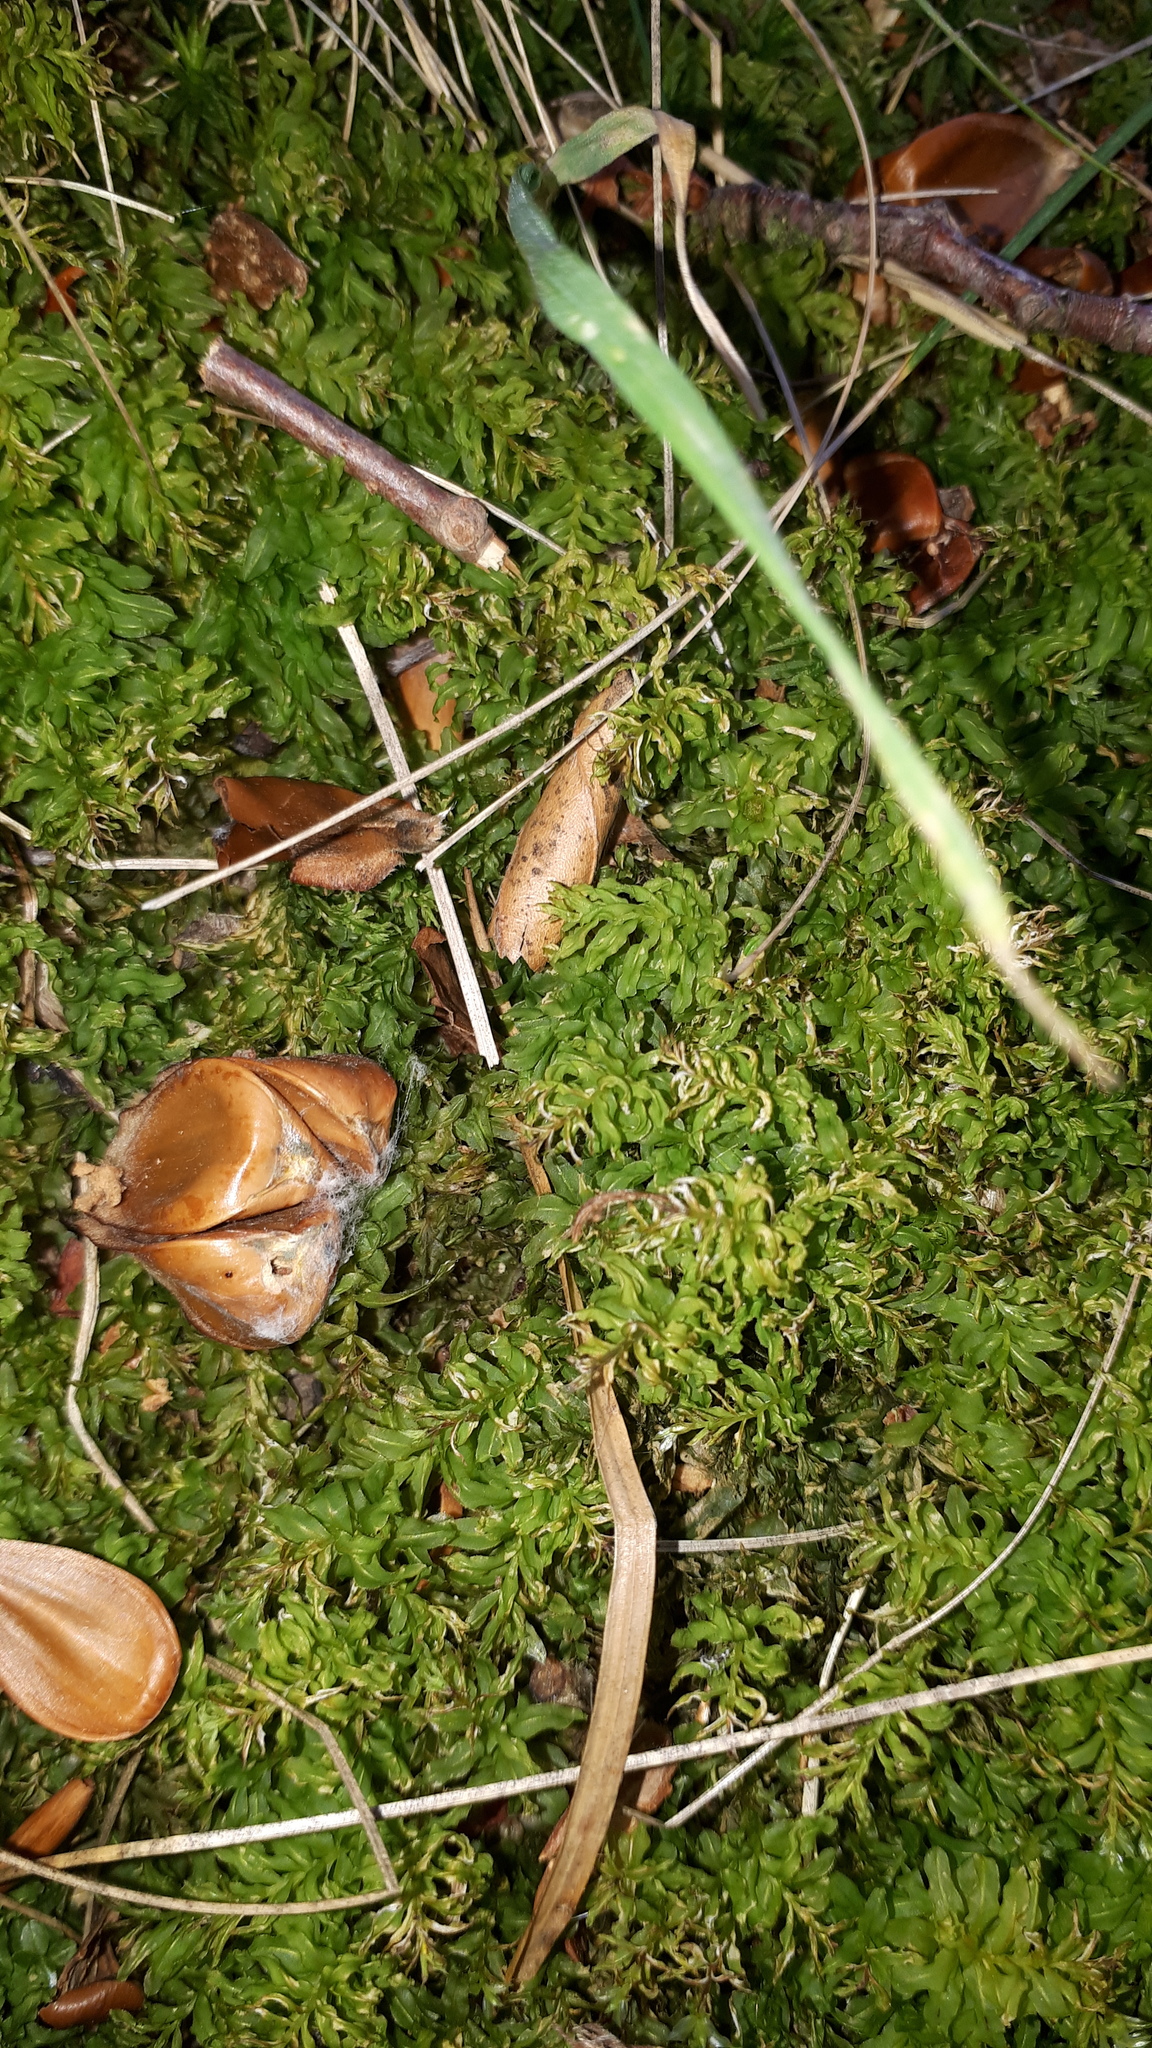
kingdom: Plantae
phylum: Bryophyta
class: Bryopsida
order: Bryales
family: Mniaceae
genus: Plagiomnium
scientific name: Plagiomnium undulatum
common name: Hart's-tongue thyme-moss
